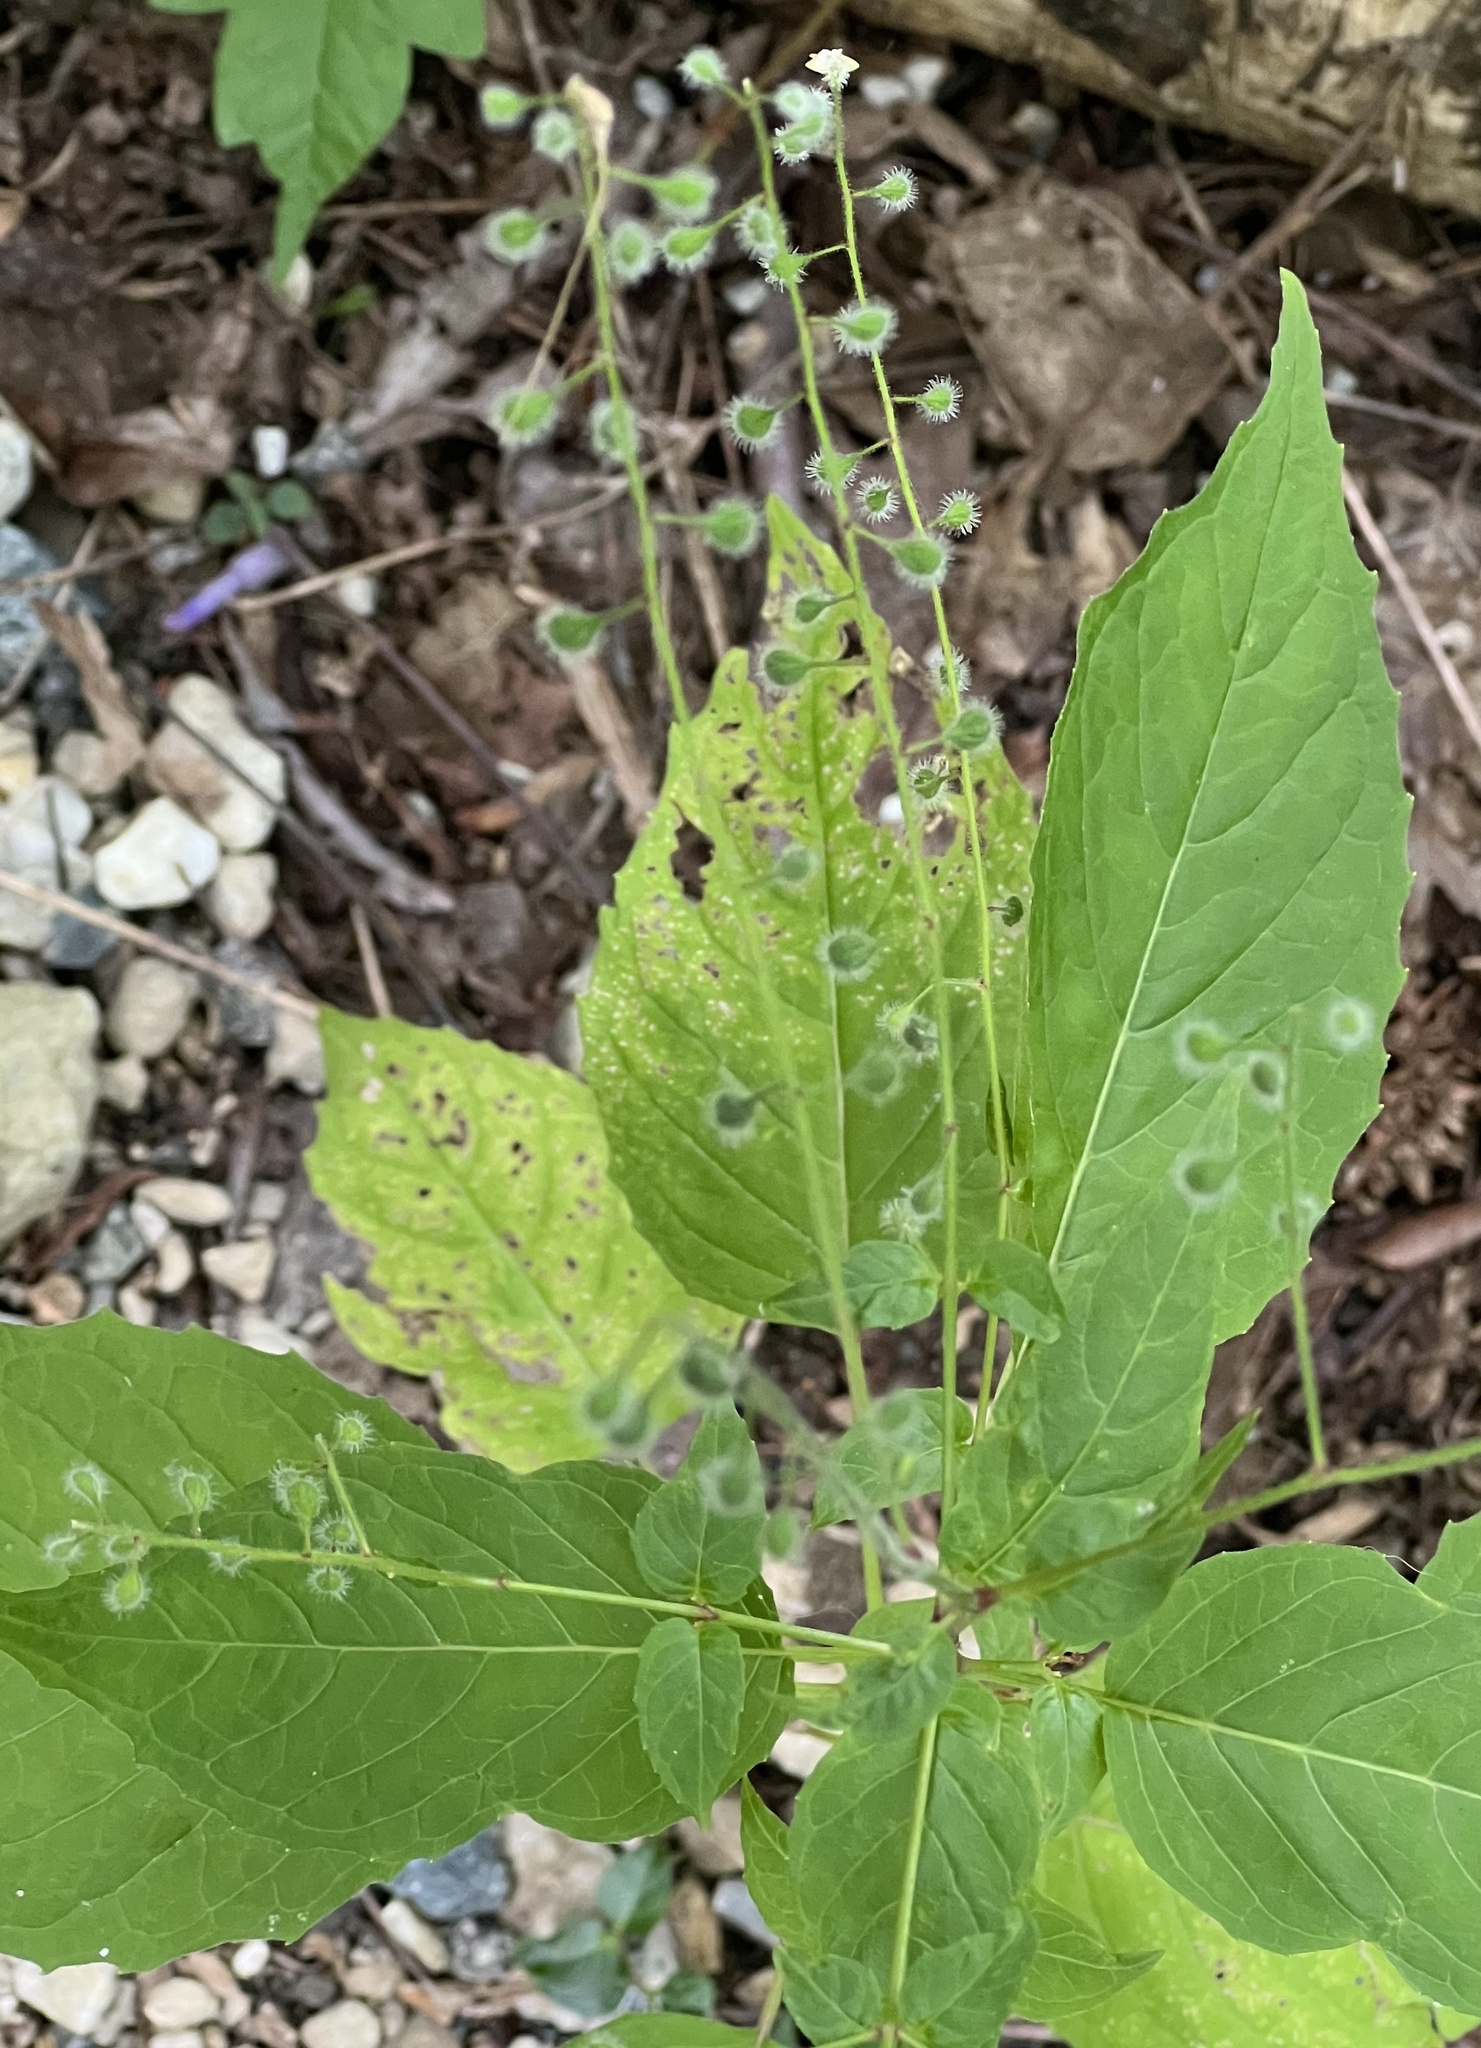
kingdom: Plantae
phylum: Tracheophyta
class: Magnoliopsida
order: Rosales
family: Rosaceae
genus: Geum
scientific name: Geum canadense
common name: White avens
